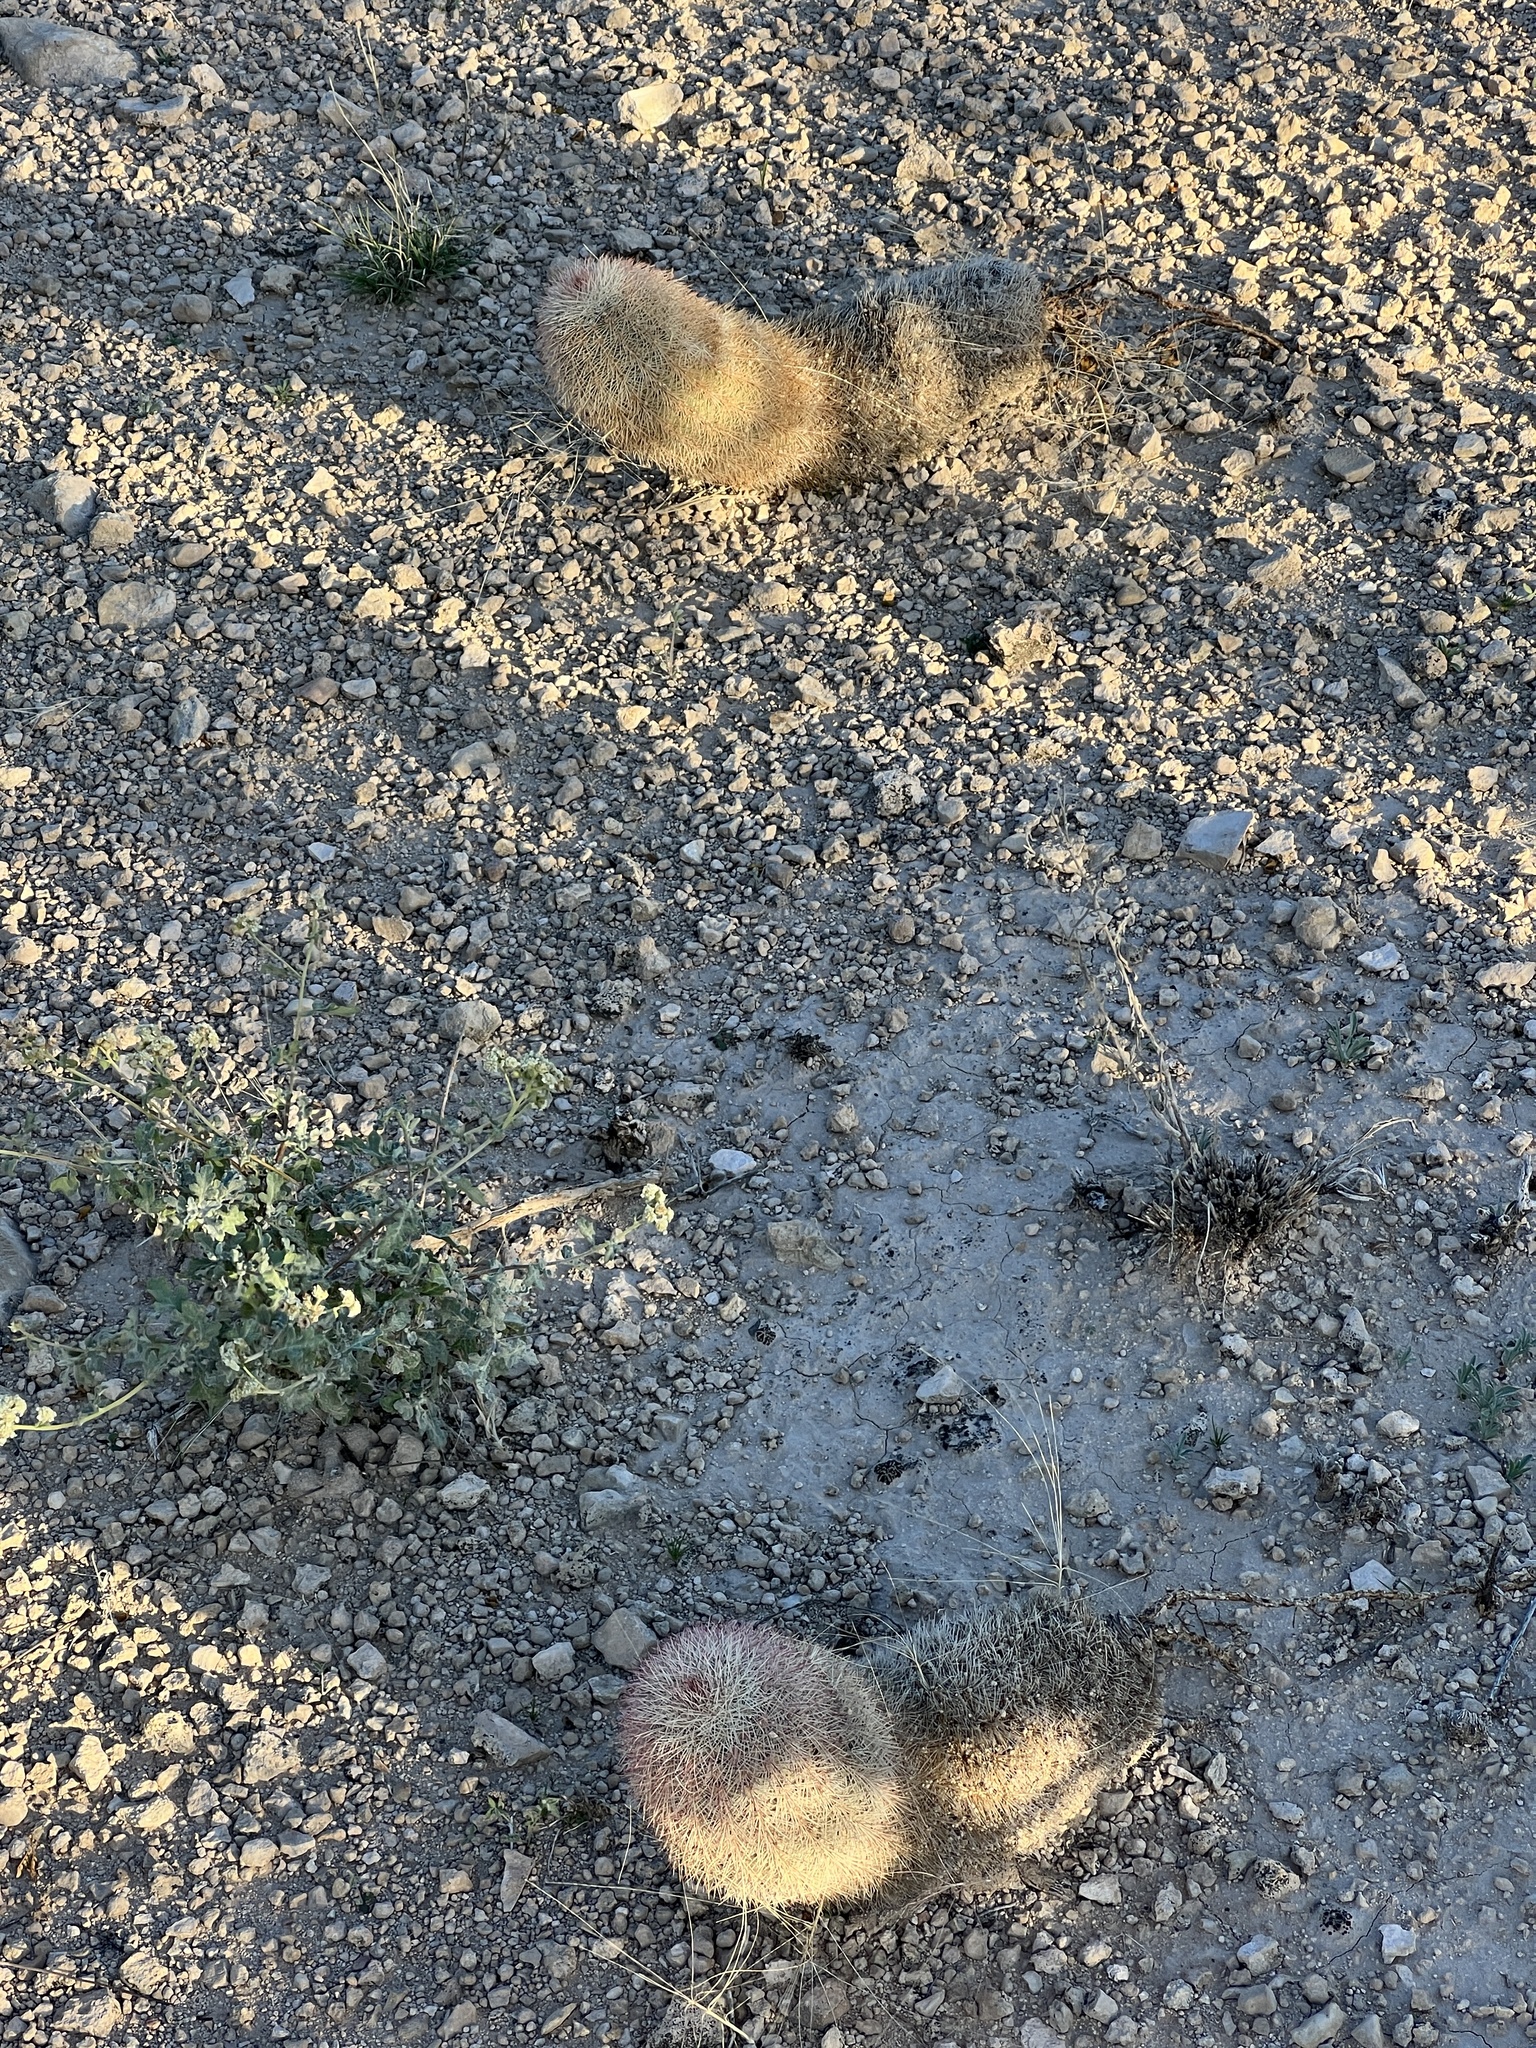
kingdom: Plantae
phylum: Tracheophyta
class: Magnoliopsida
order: Caryophyllales
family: Cactaceae
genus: Echinocereus
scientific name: Echinocereus dasyacanthus
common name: Spiny hedgehog cactus
